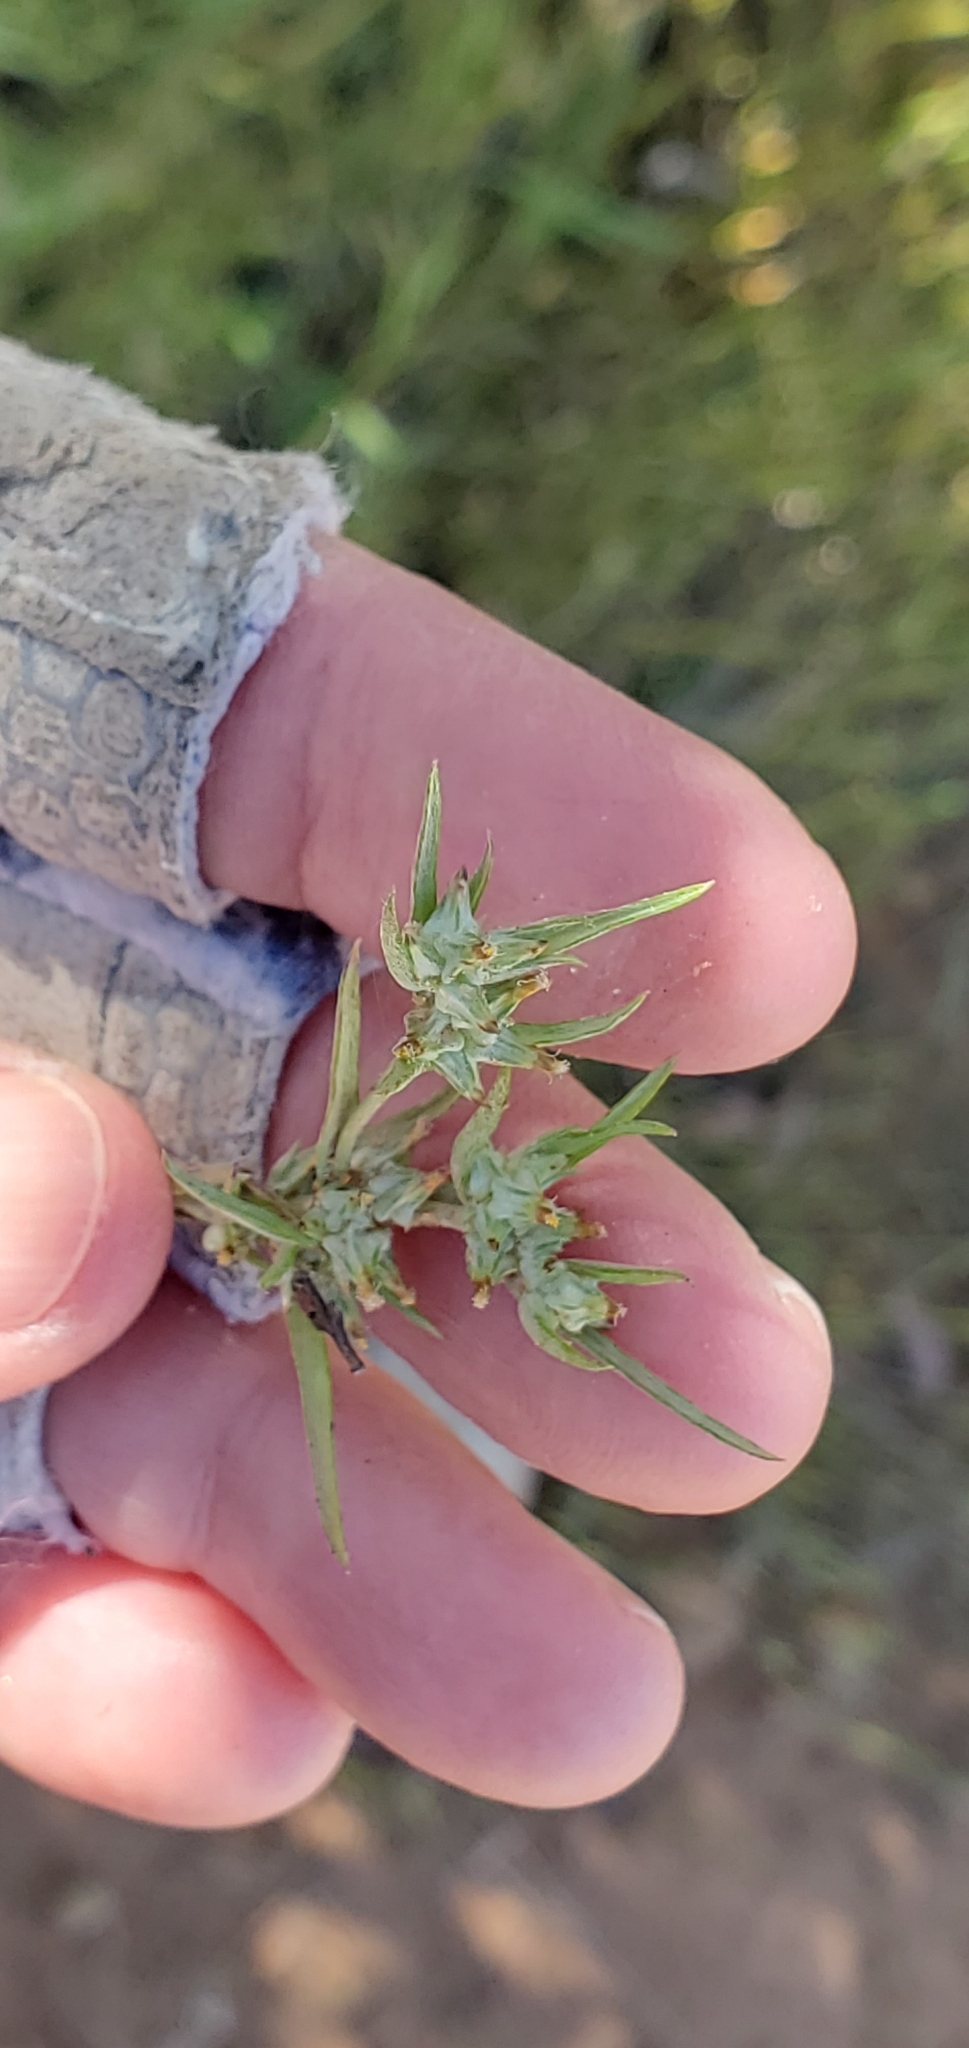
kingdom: Plantae
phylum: Tracheophyta
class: Magnoliopsida
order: Asterales
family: Asteraceae
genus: Logfia
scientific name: Logfia gallica
